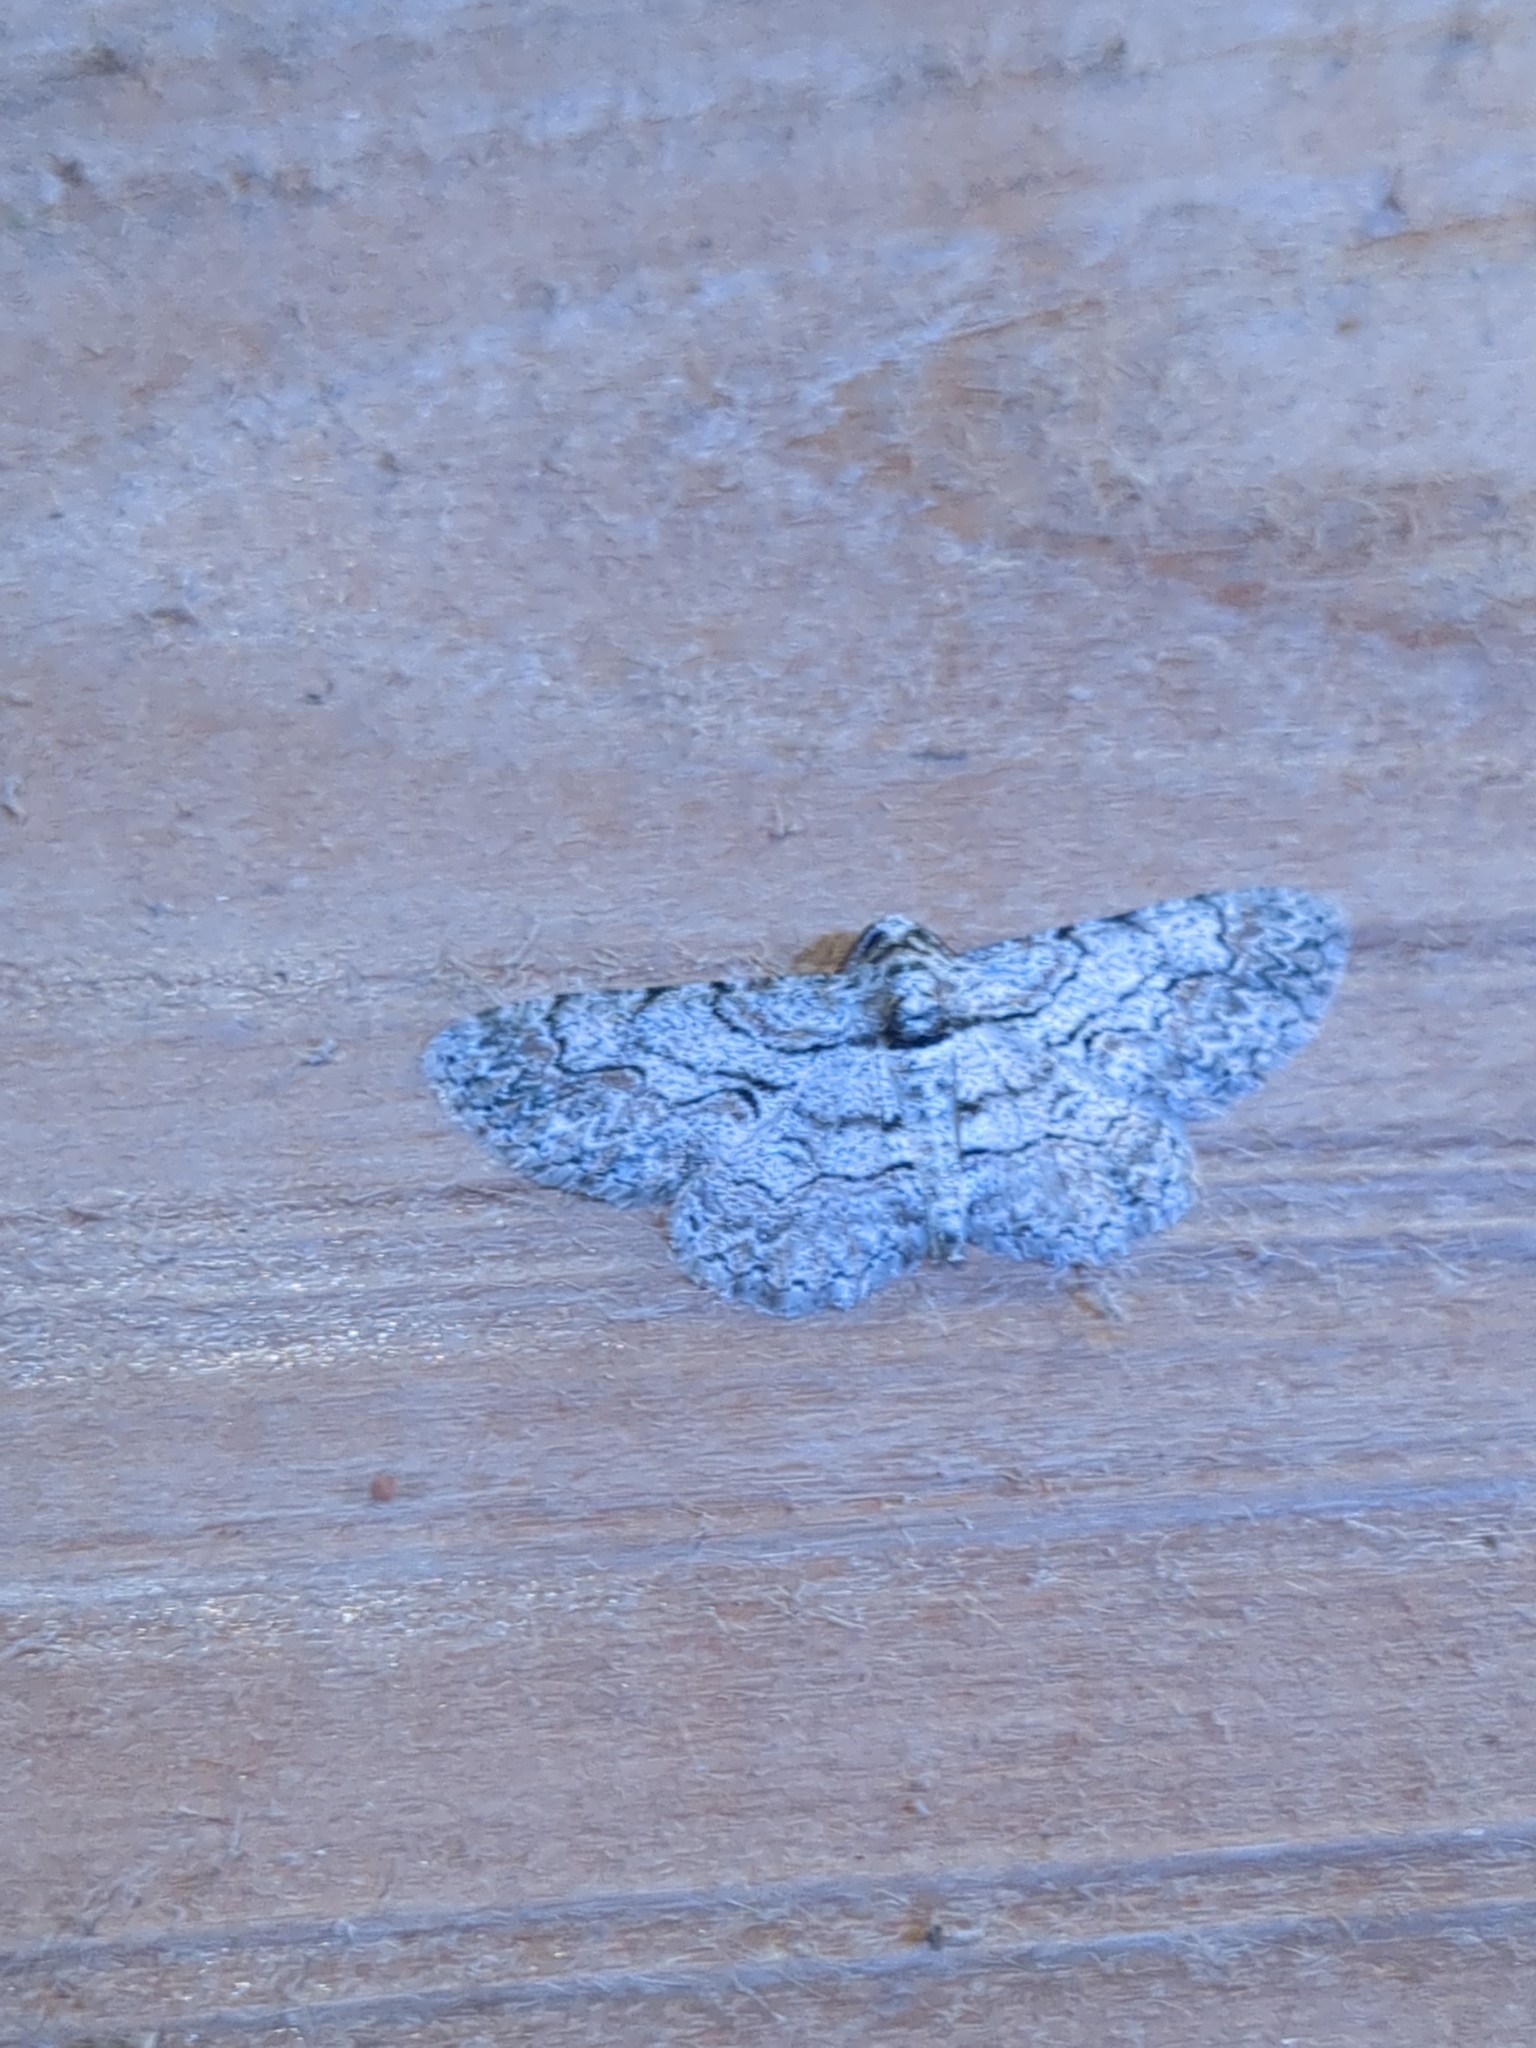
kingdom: Animalia
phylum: Arthropoda
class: Insecta
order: Lepidoptera
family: Geometridae
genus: Iridopsis
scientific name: Iridopsis defectaria
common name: Brown-shaded gray
